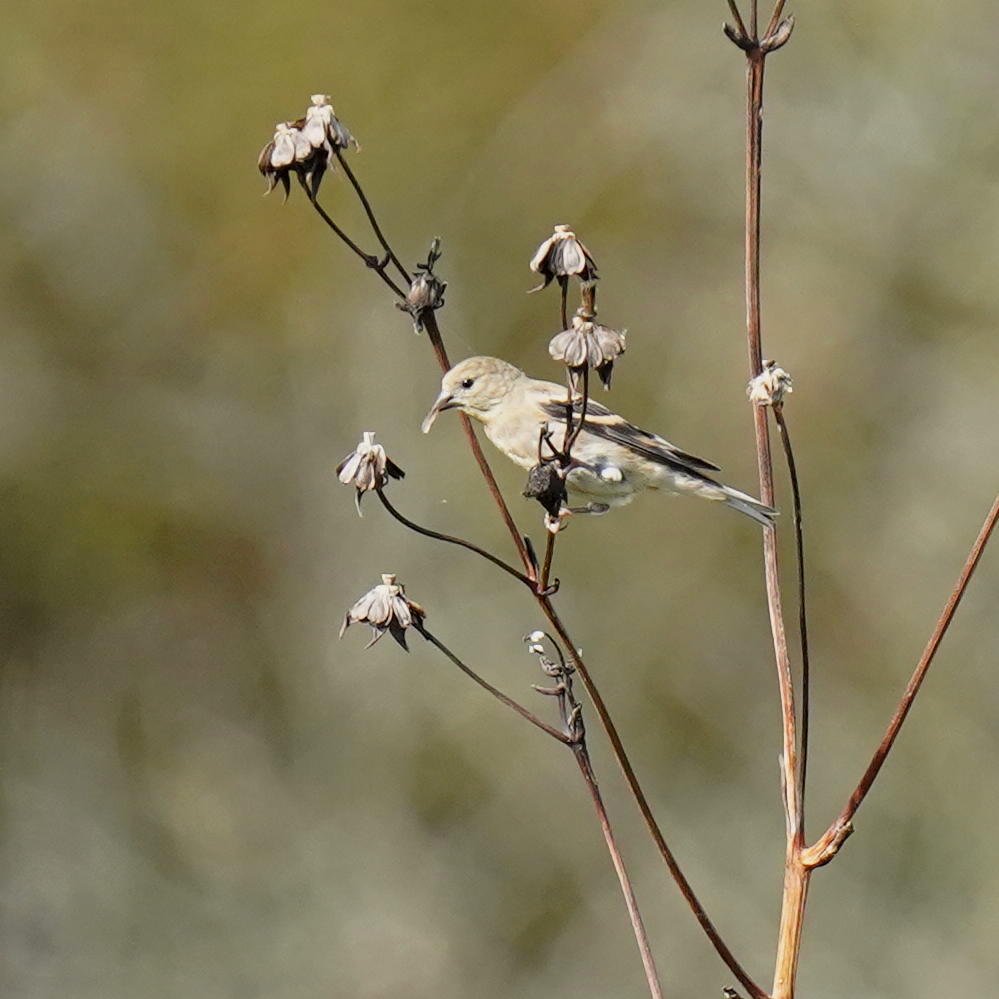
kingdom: Animalia
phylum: Chordata
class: Aves
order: Passeriformes
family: Fringillidae
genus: Spinus
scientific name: Spinus tristis
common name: American goldfinch
